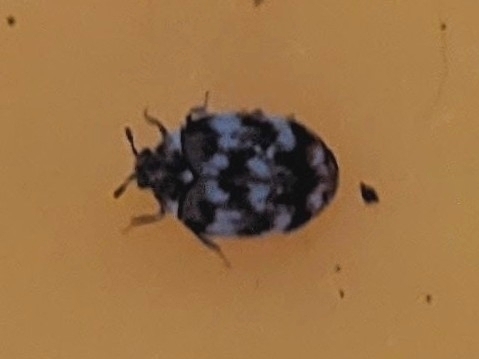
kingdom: Animalia
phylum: Arthropoda
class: Insecta
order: Coleoptera
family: Dermestidae
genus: Anthrenus
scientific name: Anthrenus verbasci
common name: Varied carpet beetle
